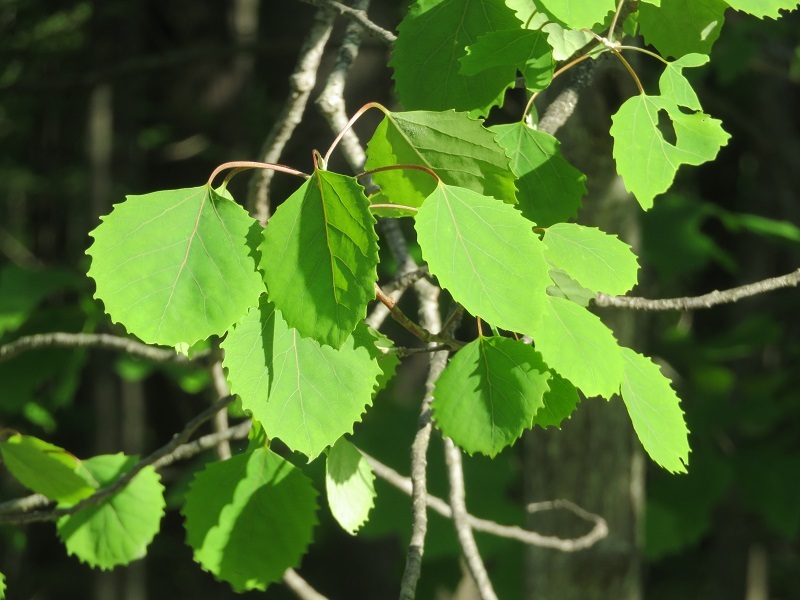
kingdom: Plantae
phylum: Tracheophyta
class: Magnoliopsida
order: Malpighiales
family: Salicaceae
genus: Populus
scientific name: Populus grandidentata
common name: Bigtooth aspen
